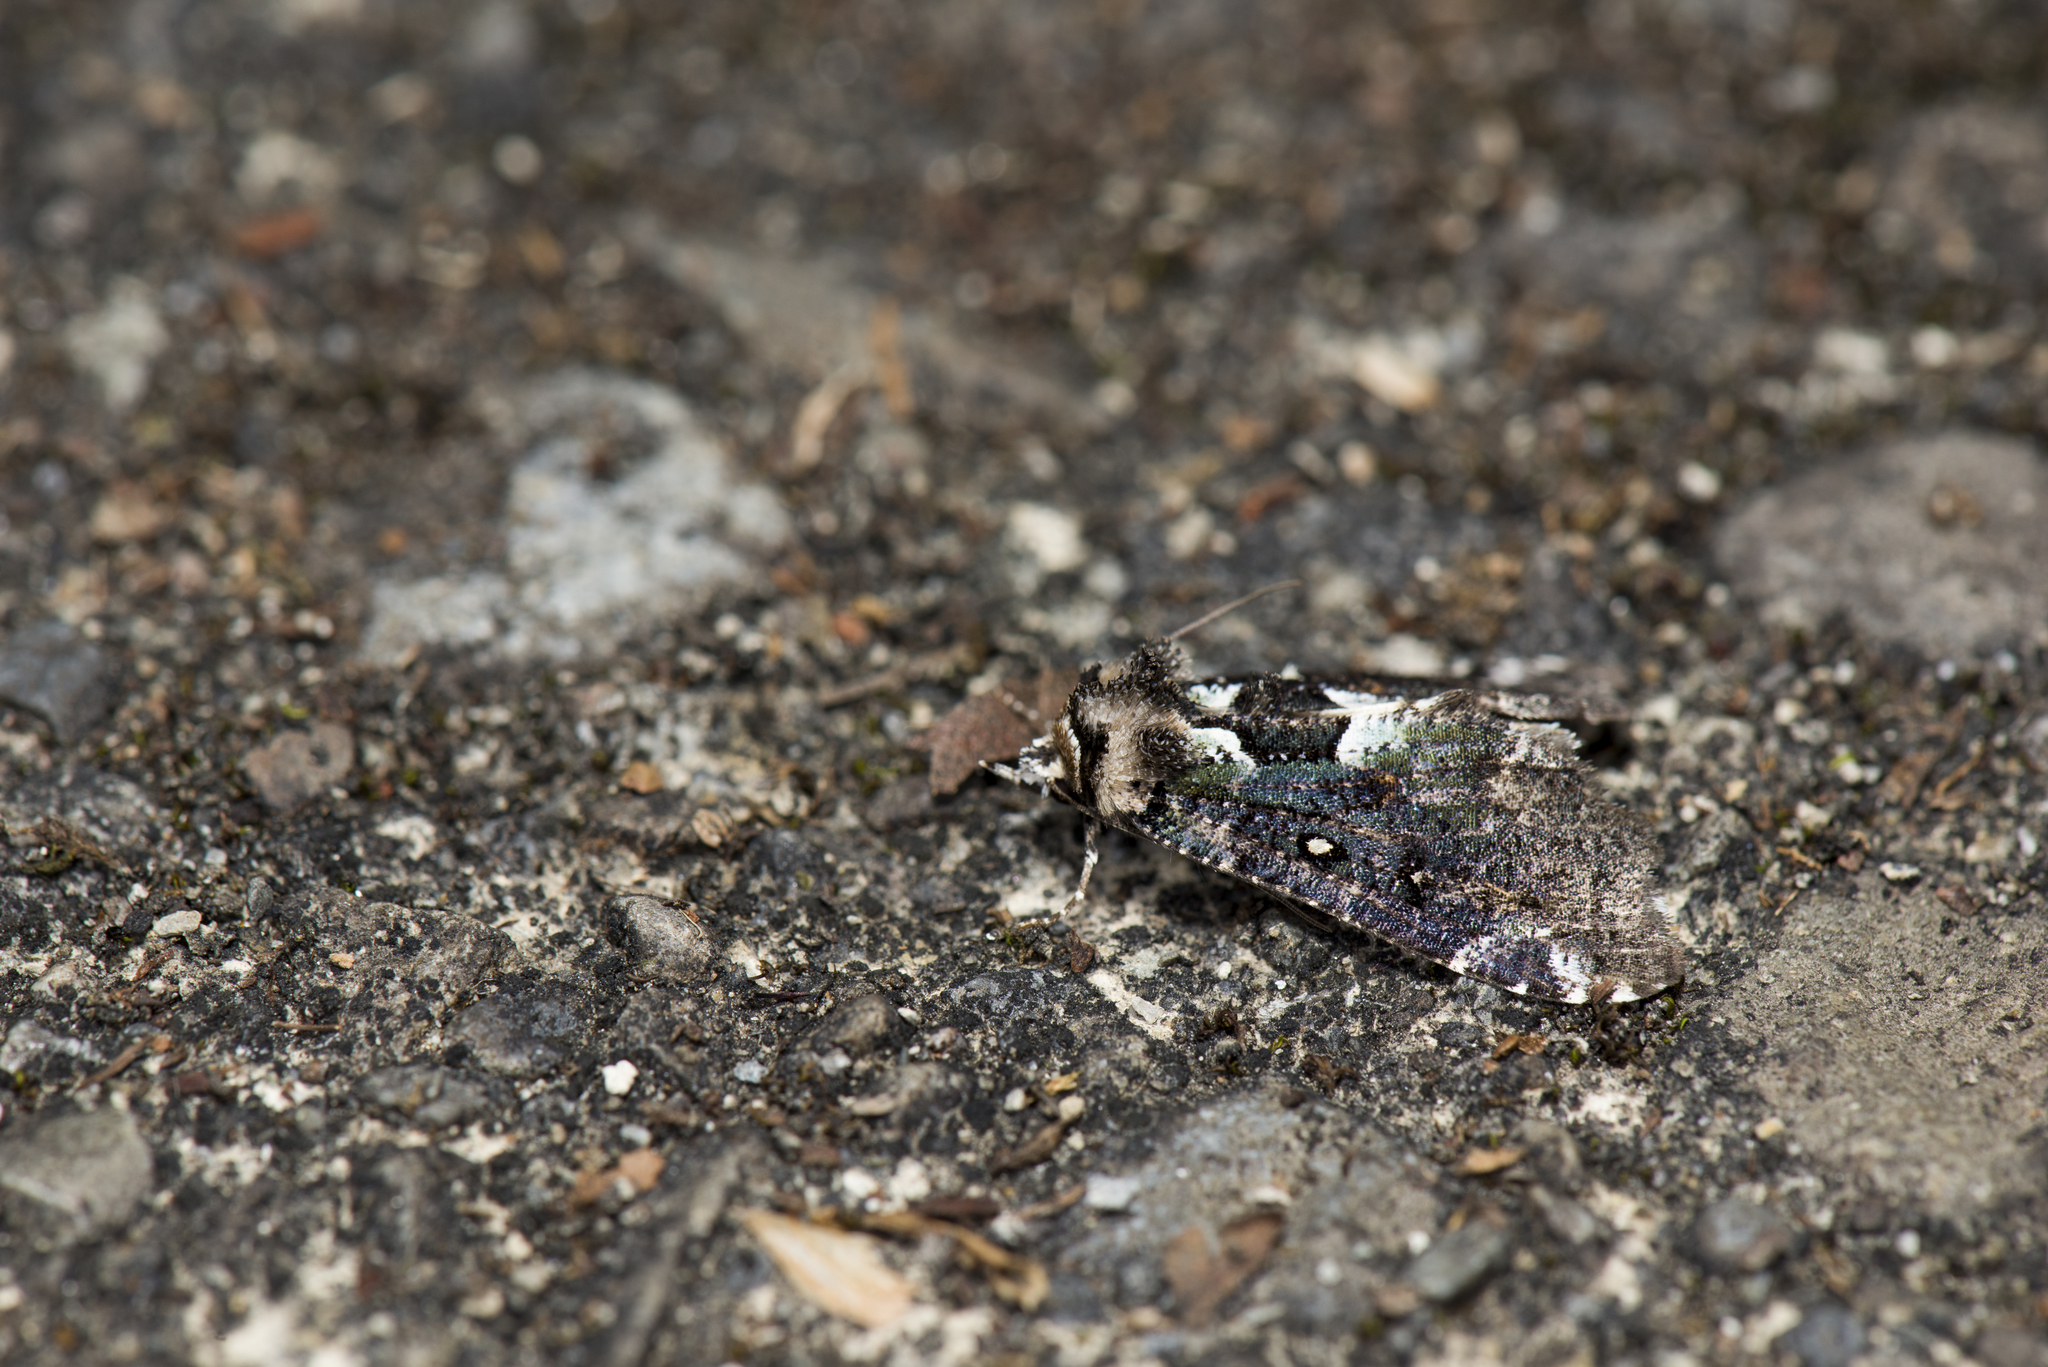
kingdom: Animalia
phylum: Arthropoda
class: Insecta
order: Lepidoptera
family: Erebidae
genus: Perciana
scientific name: Perciana marmorea
